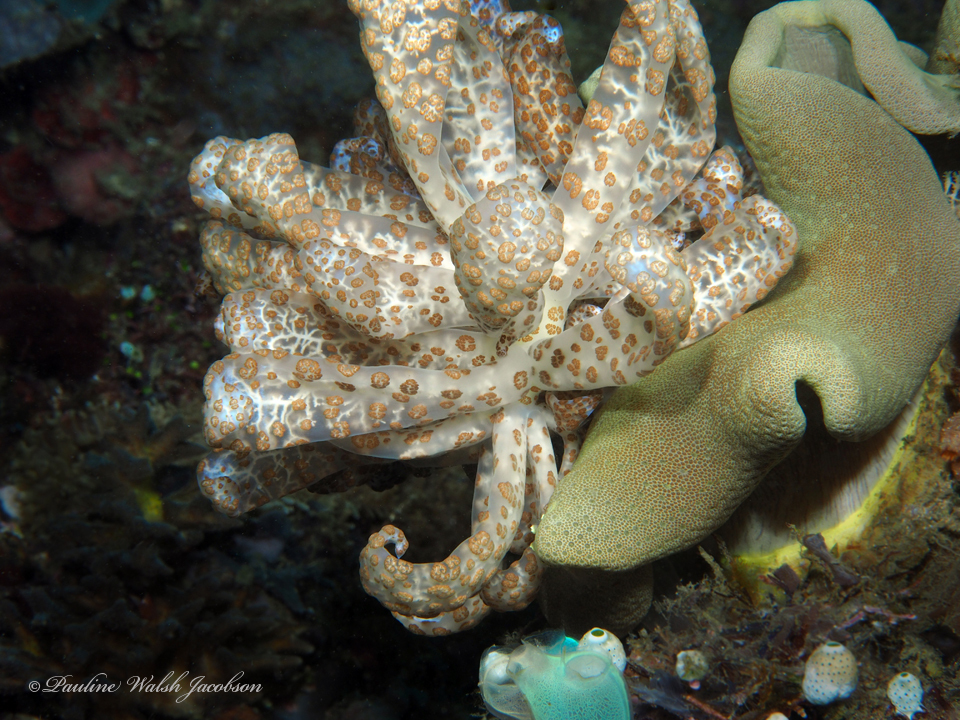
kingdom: Animalia
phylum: Mollusca
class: Gastropoda
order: Nudibranchia
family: Myrrhinidae
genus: Phyllodesmium
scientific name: Phyllodesmium longicirrum
